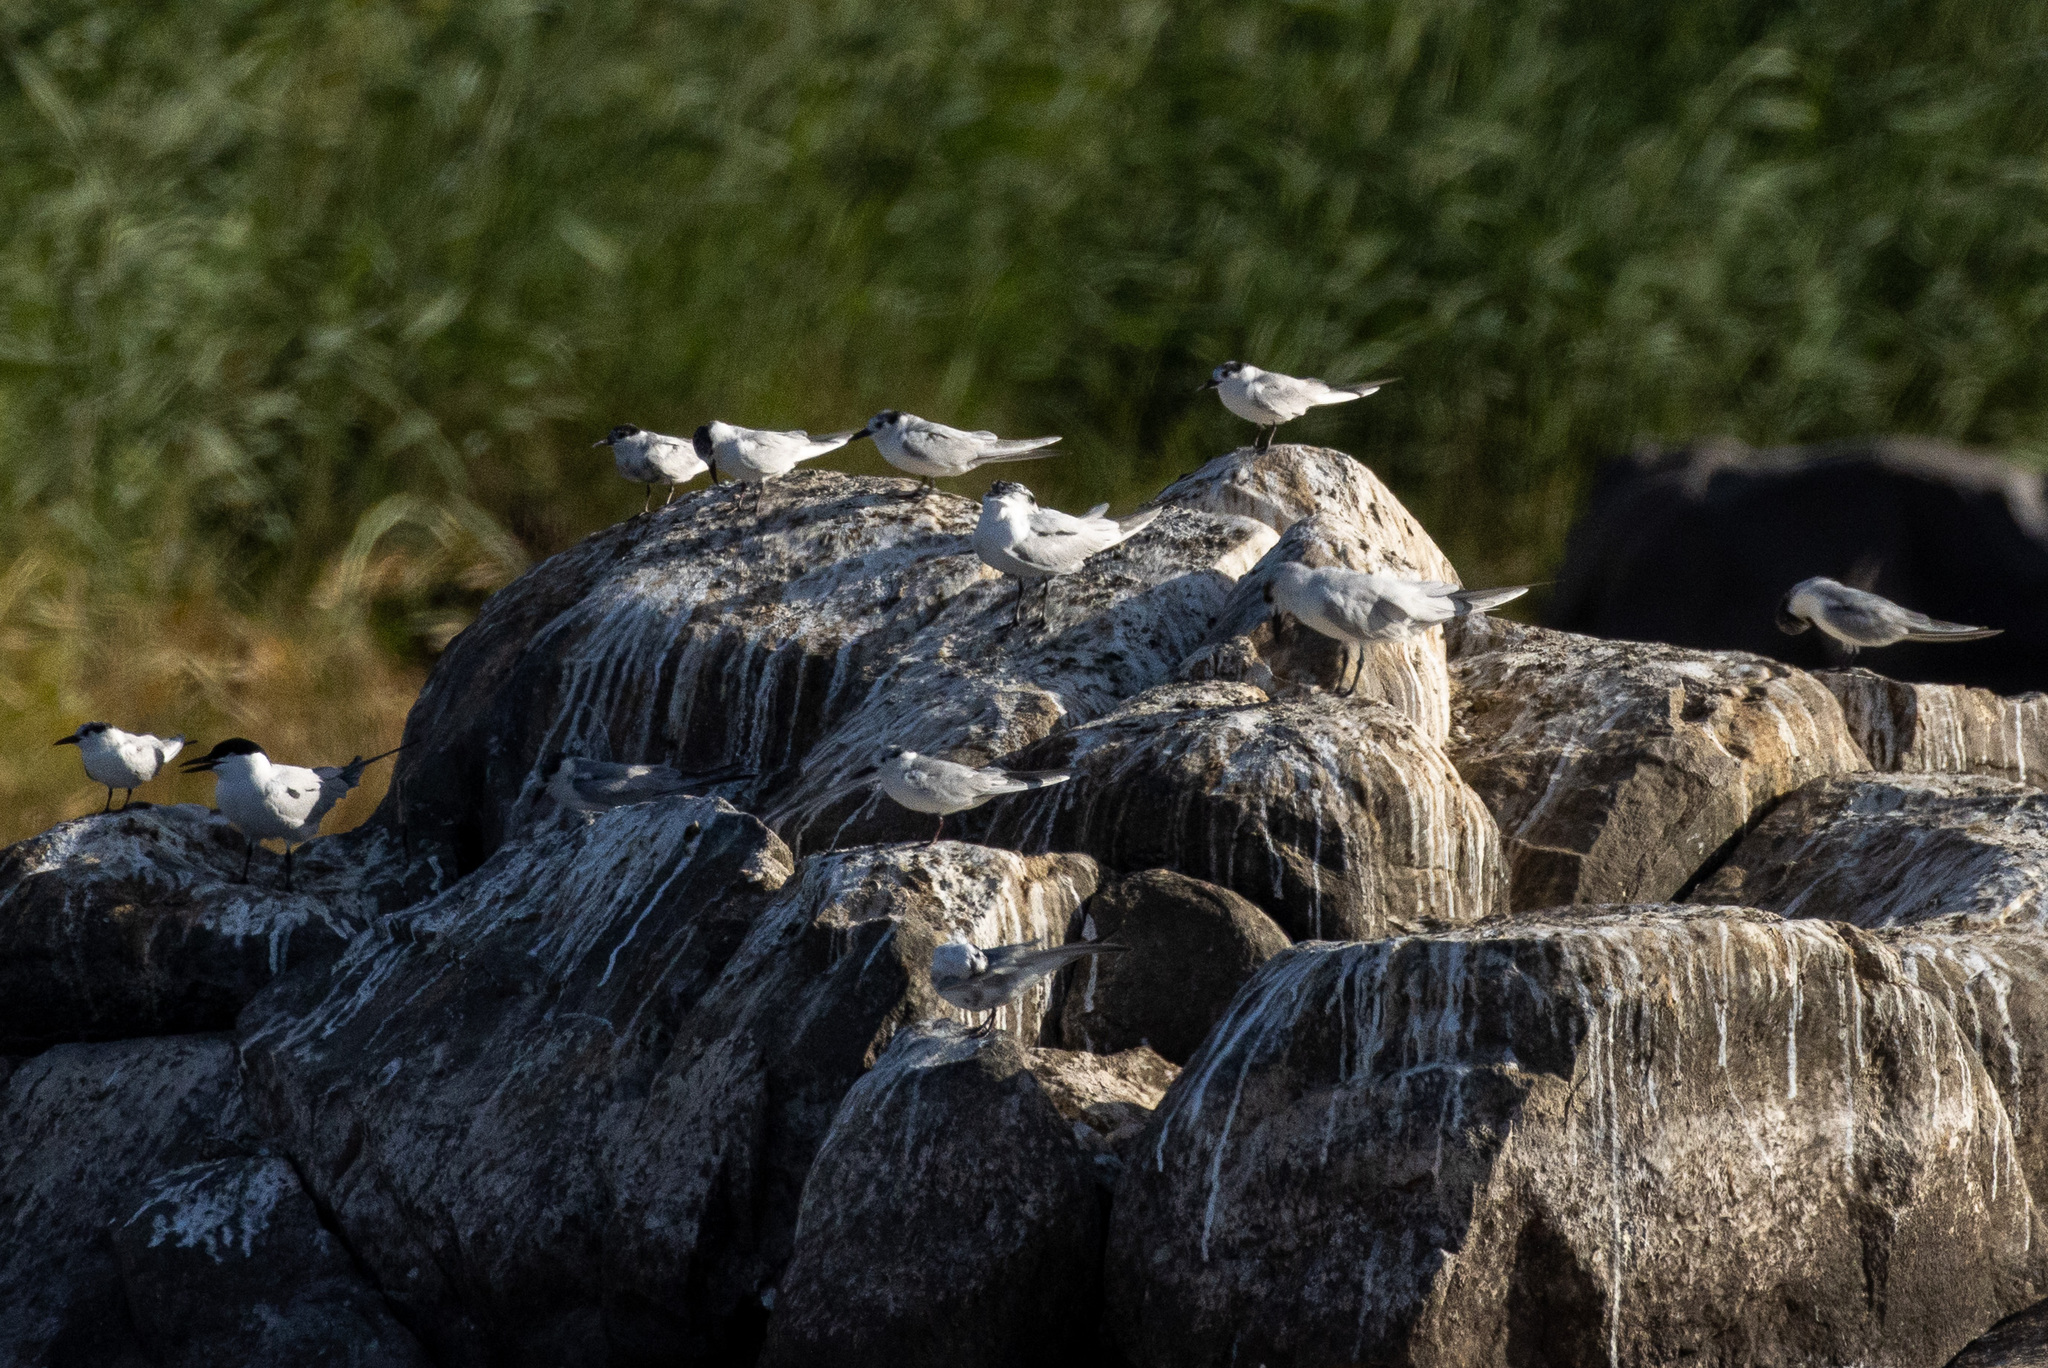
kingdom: Animalia
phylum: Chordata
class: Aves
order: Charadriiformes
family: Laridae
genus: Chlidonias
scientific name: Chlidonias hybrida
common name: Whiskered tern
